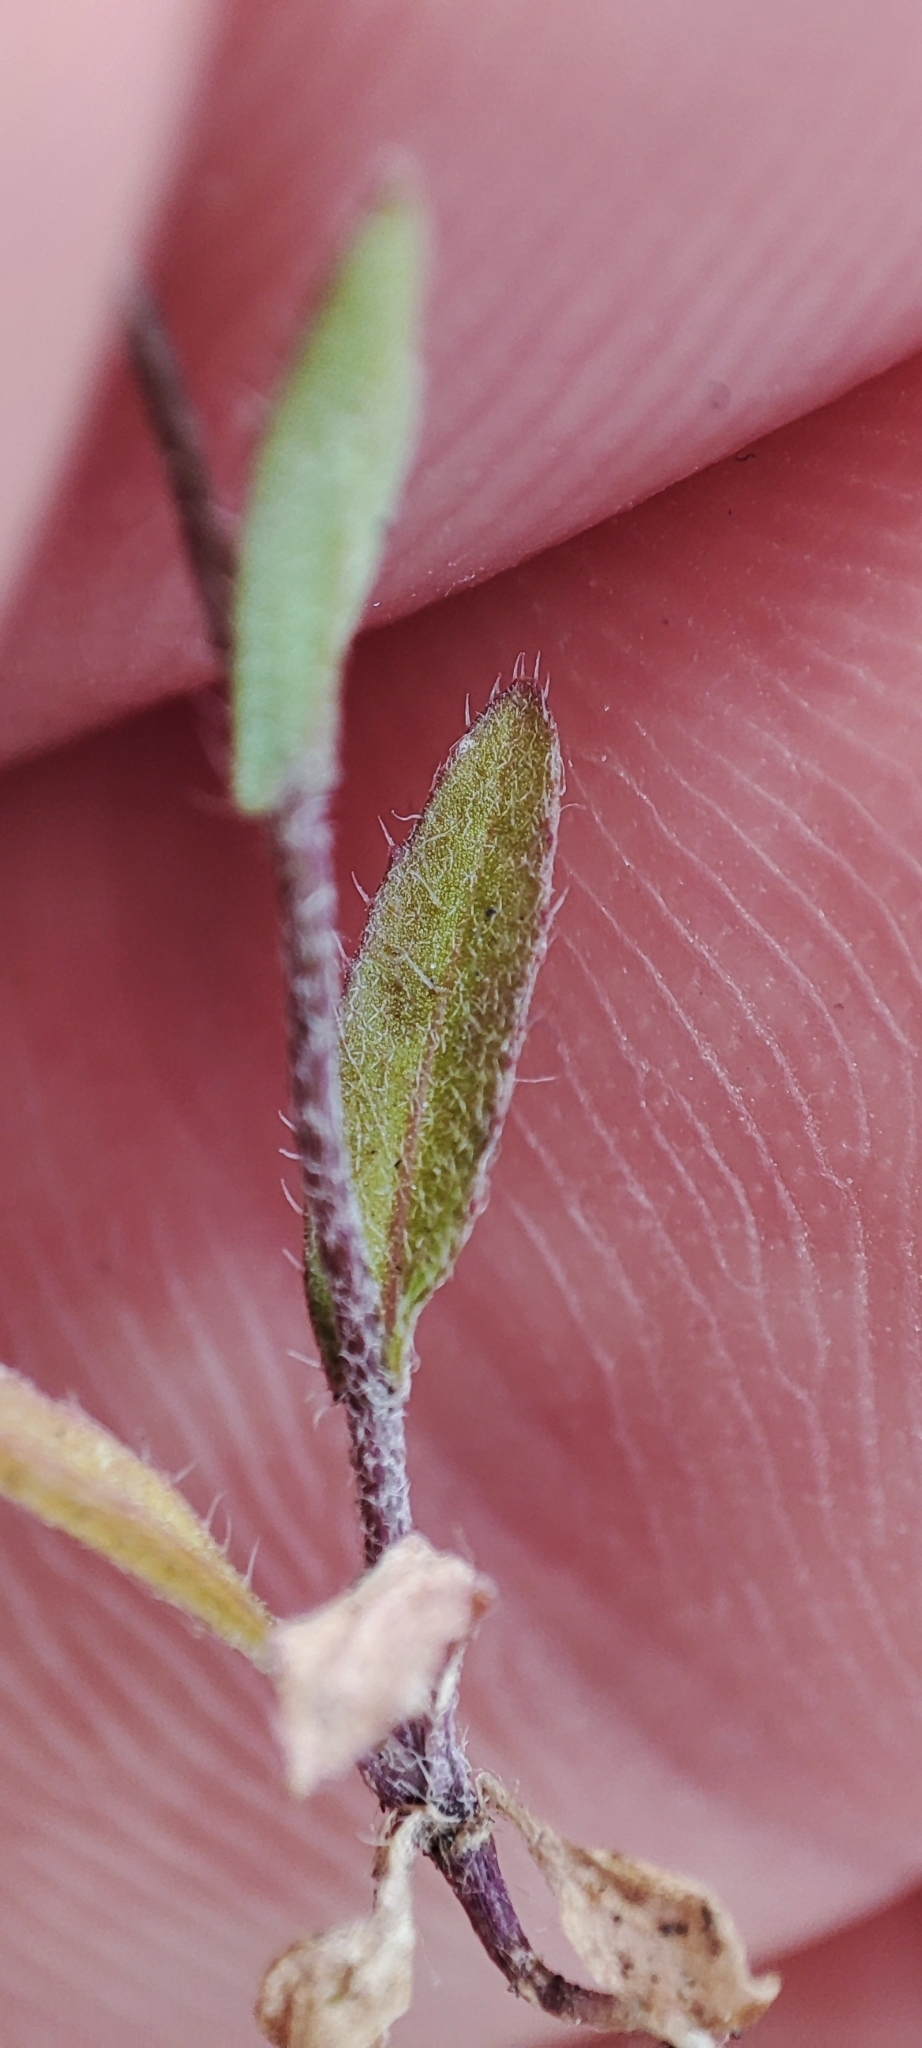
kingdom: Plantae
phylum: Tracheophyta
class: Magnoliopsida
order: Brassicales
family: Brassicaceae
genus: Capsella
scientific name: Capsella bursa-pastoris
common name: Shepherd's purse
